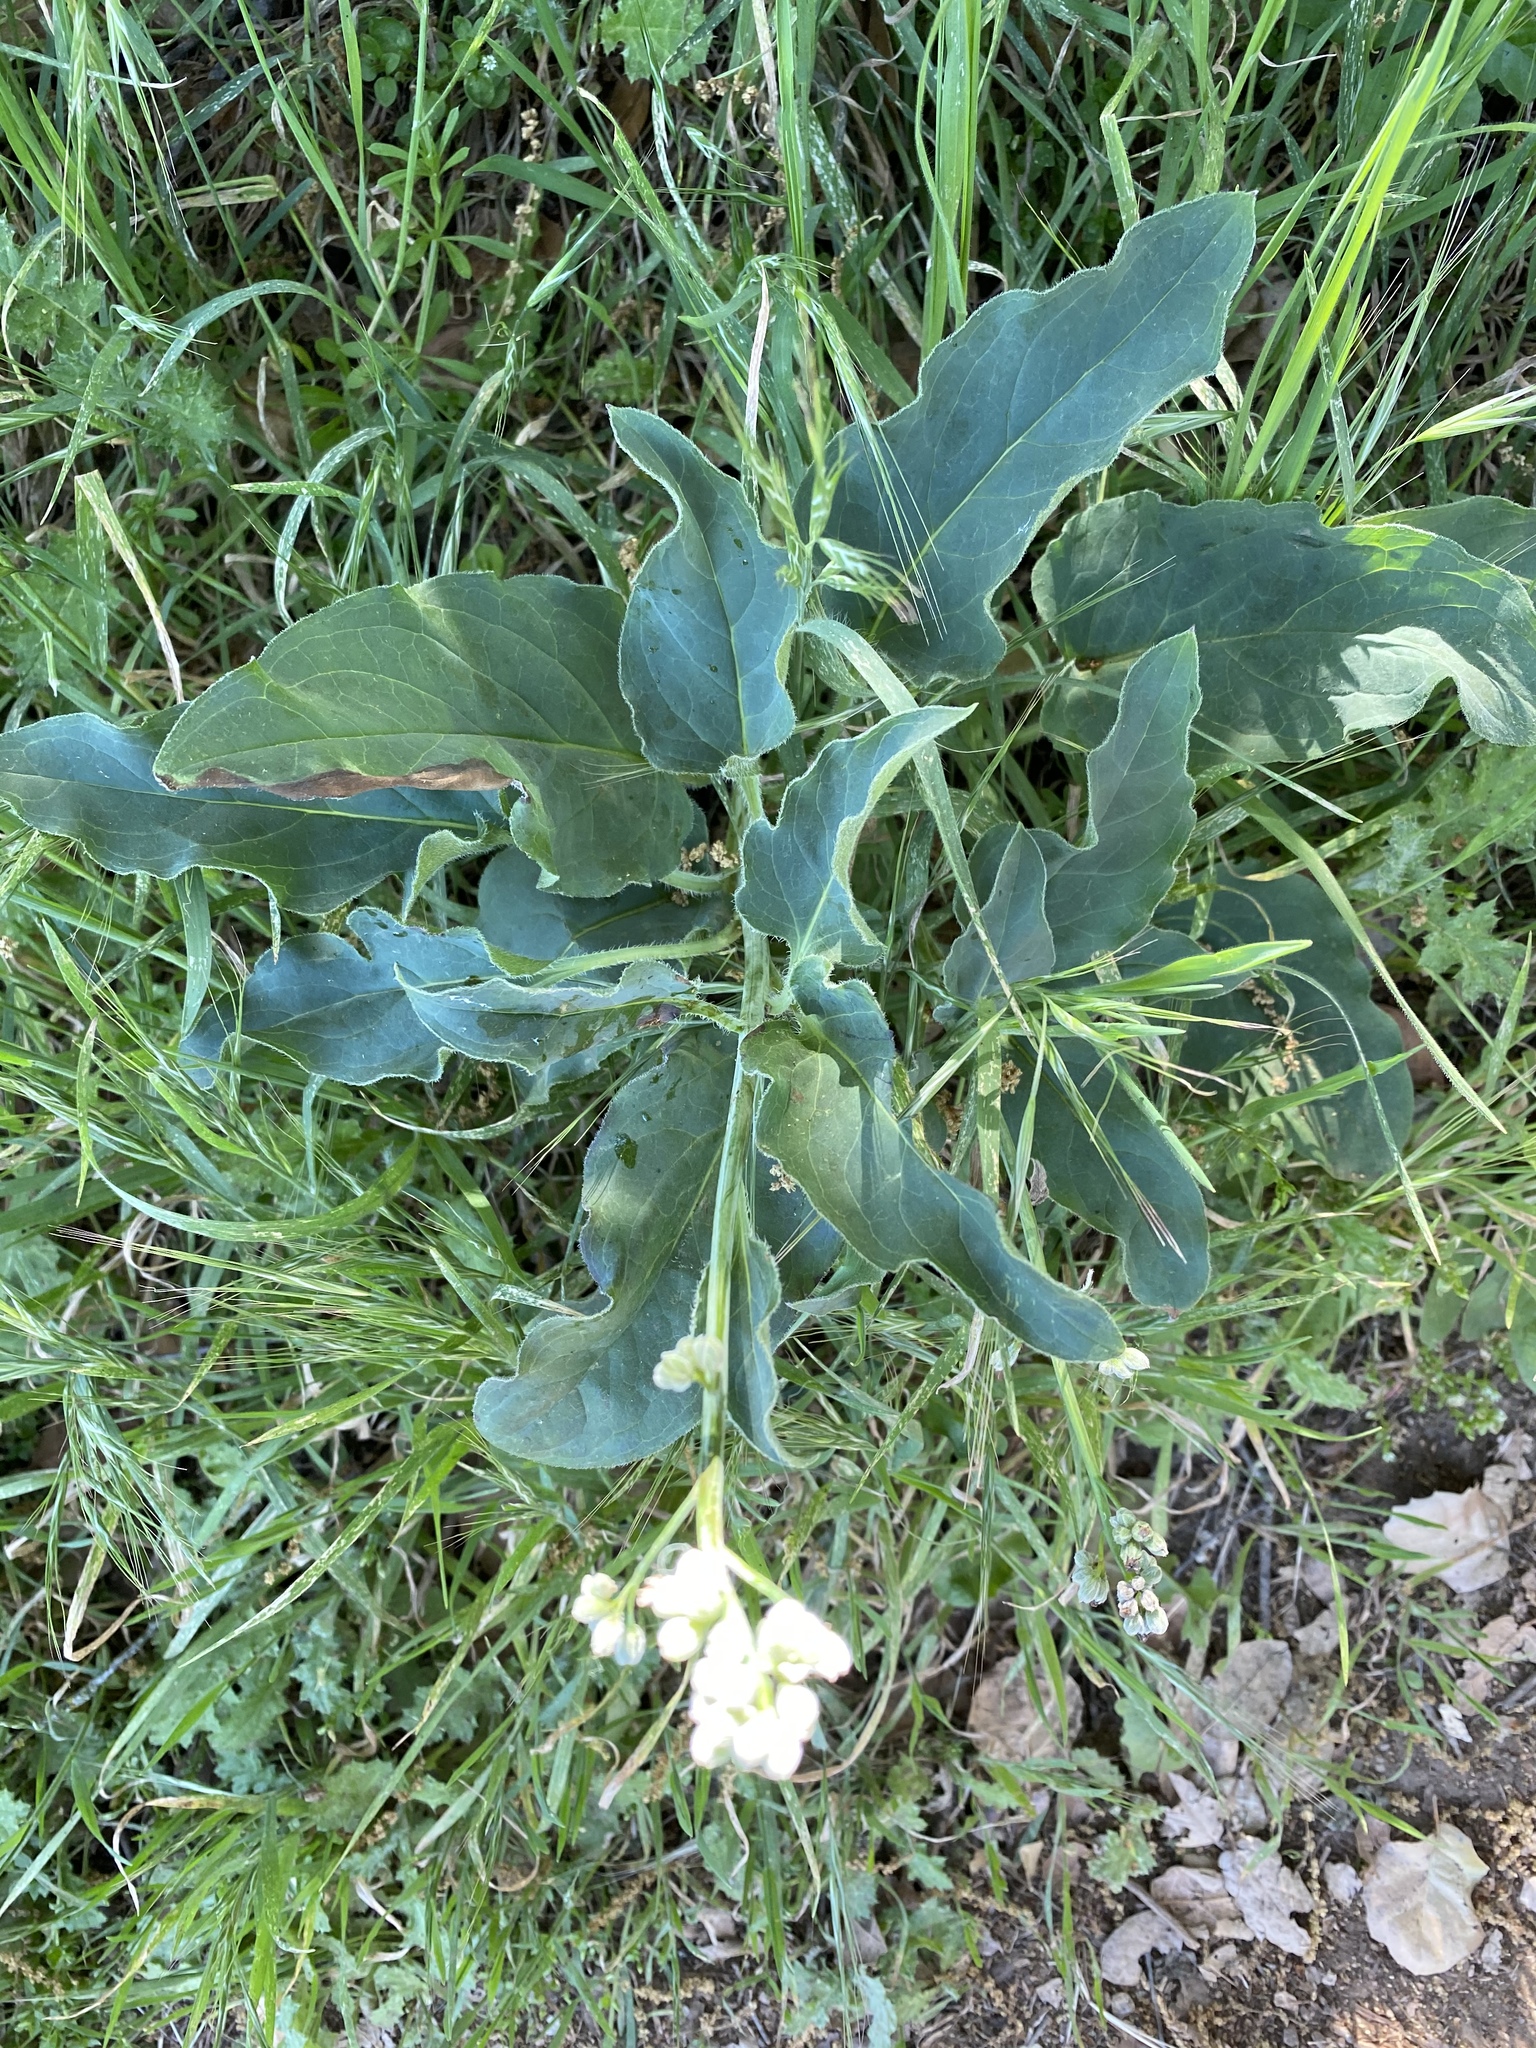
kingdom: Plantae
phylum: Tracheophyta
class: Magnoliopsida
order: Boraginales
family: Boraginaceae
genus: Adelinia
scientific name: Adelinia grande
